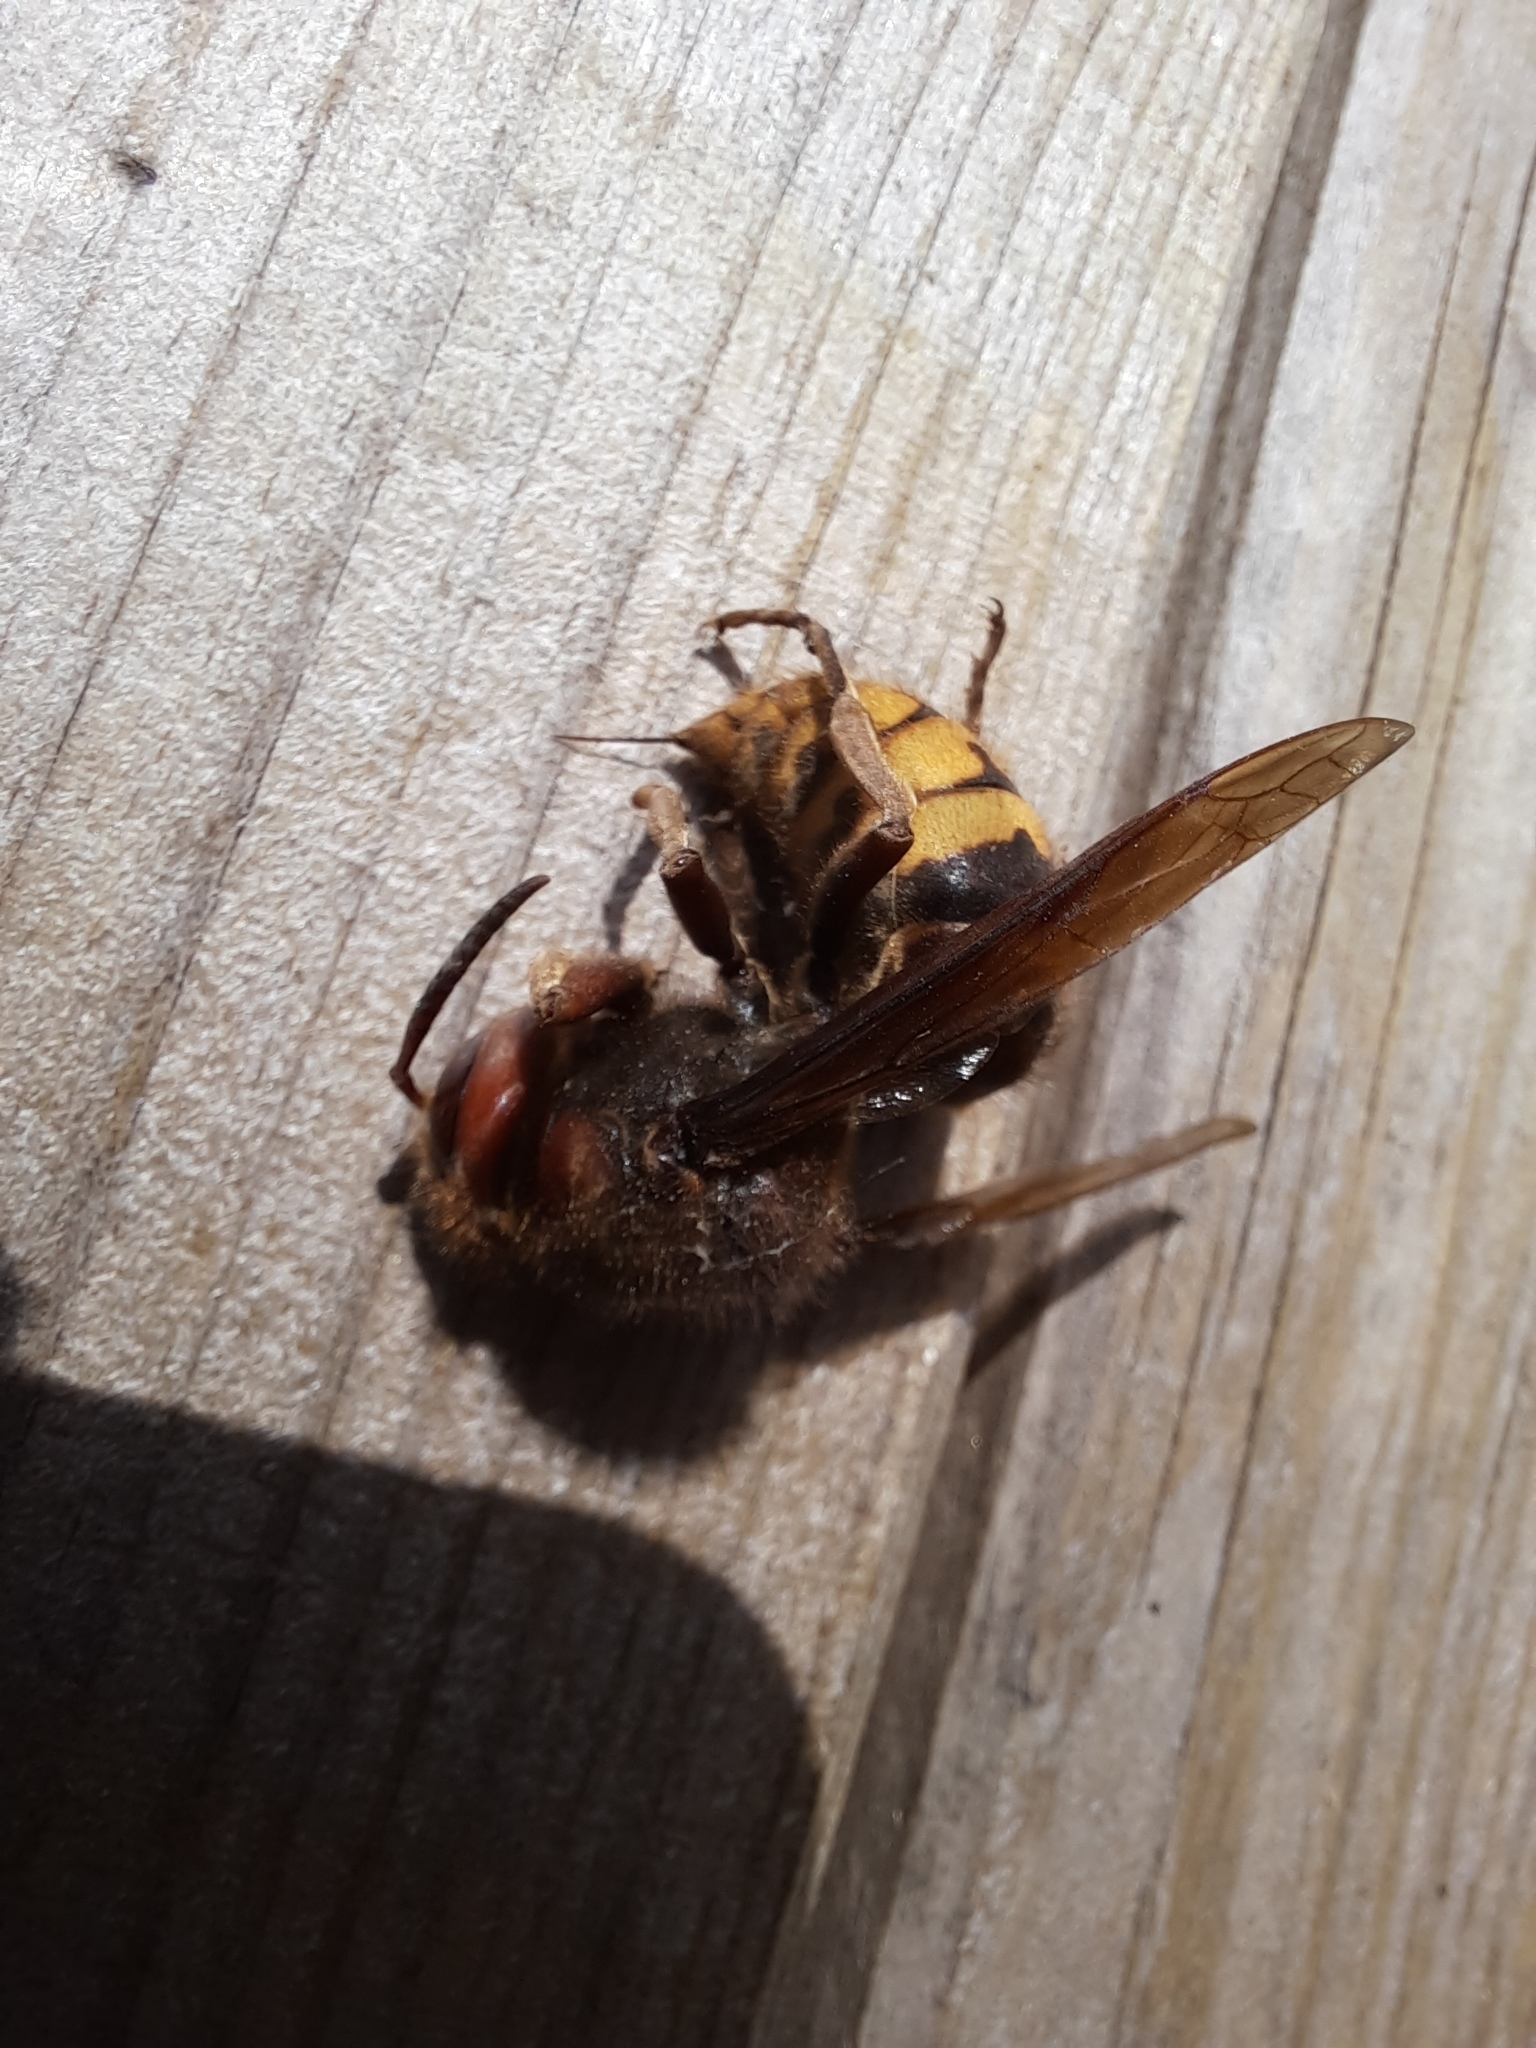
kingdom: Animalia
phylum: Arthropoda
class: Insecta
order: Hymenoptera
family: Vespidae
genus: Vespa
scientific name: Vespa crabro
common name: Hornet
